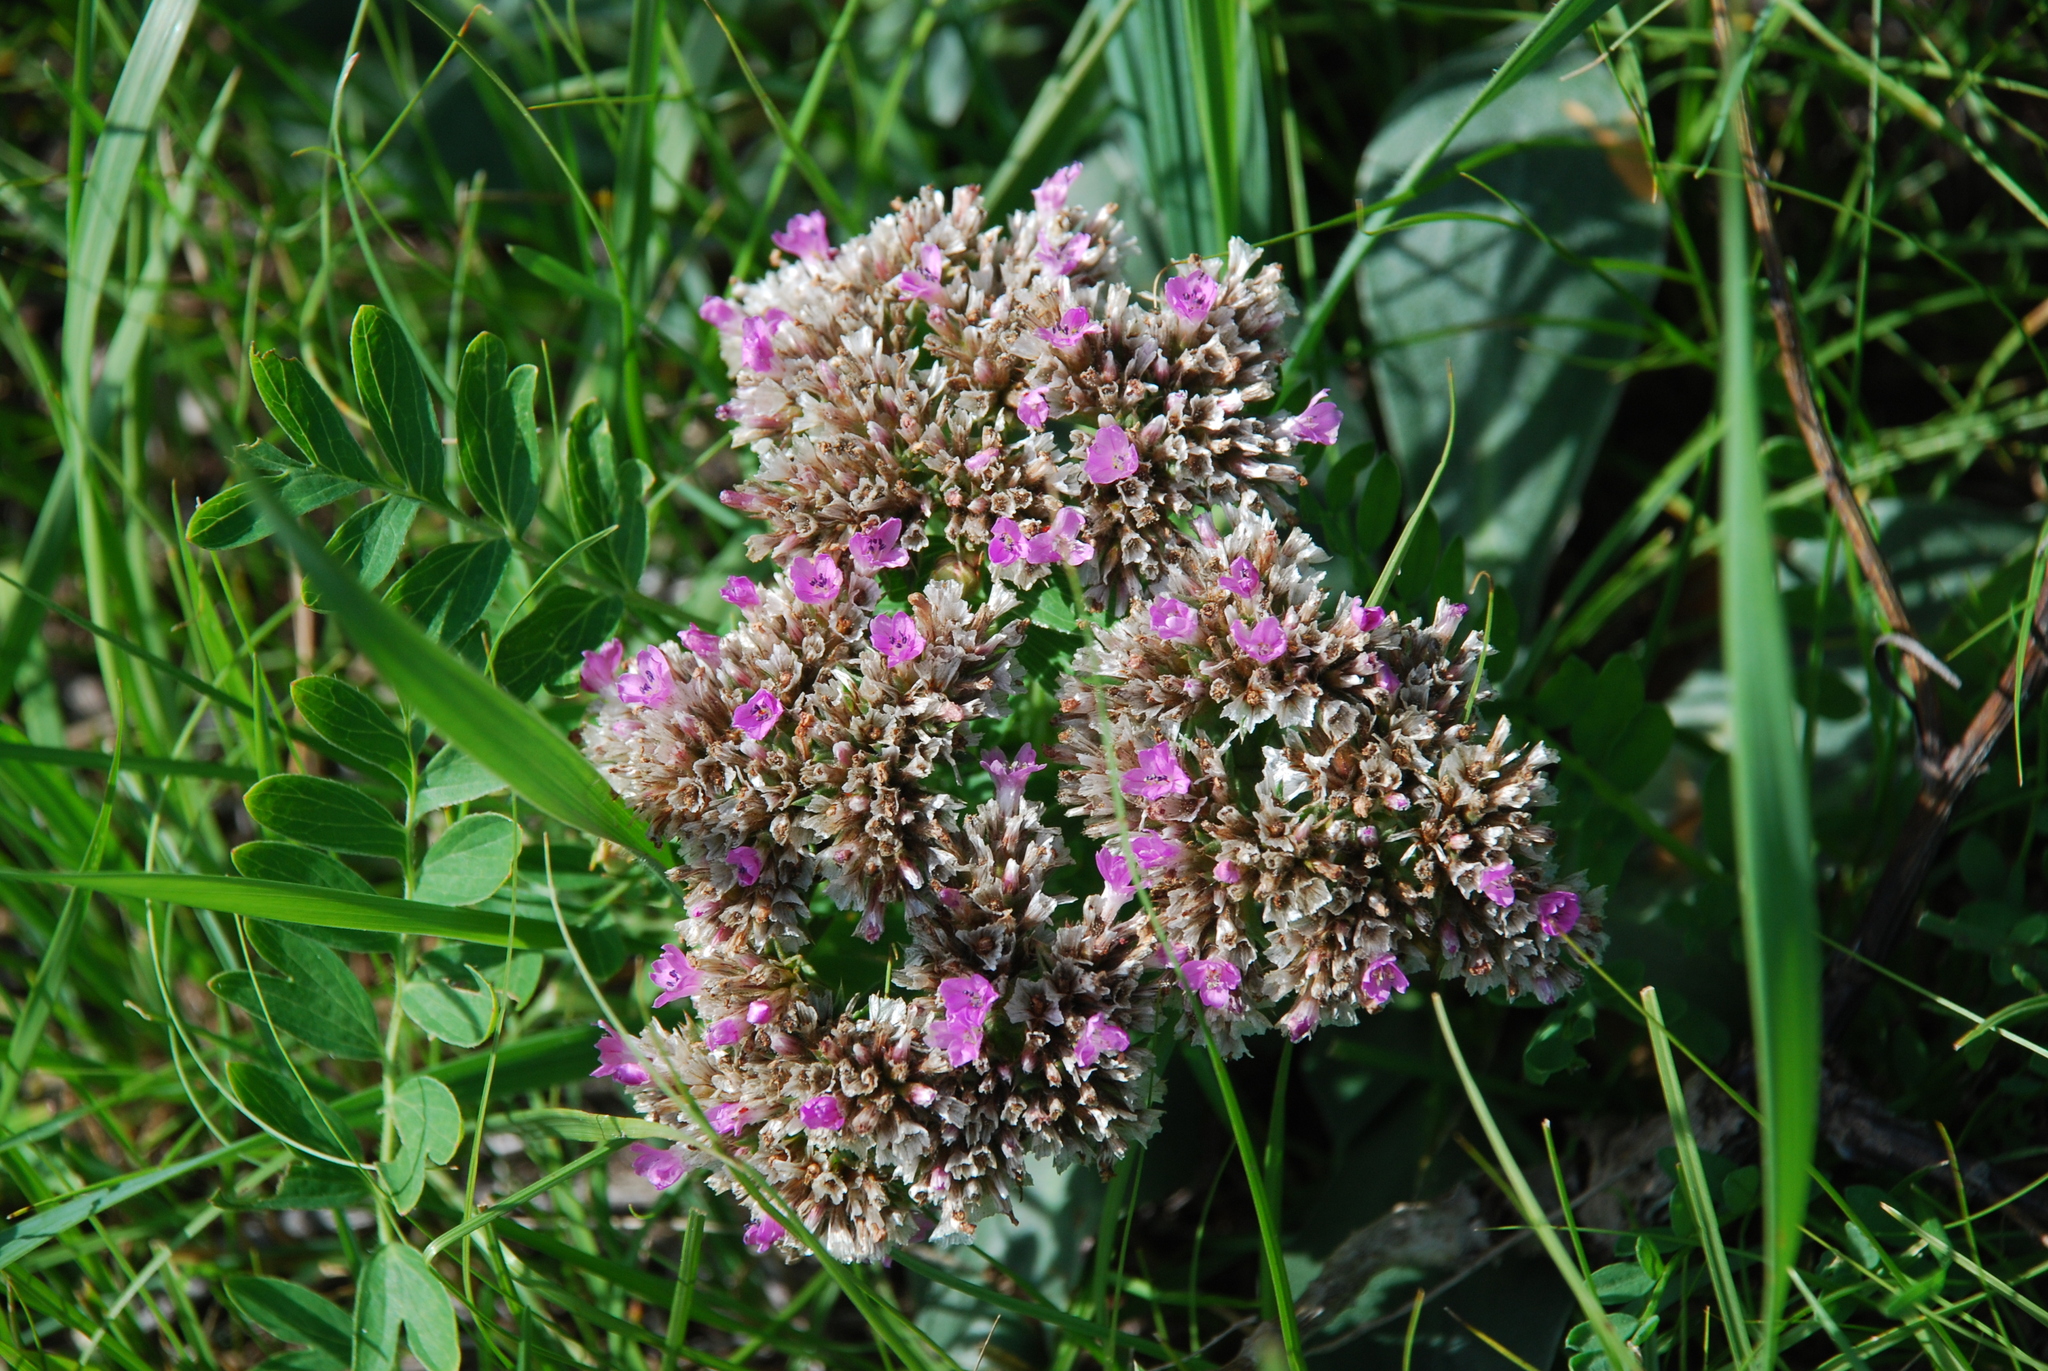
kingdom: Plantae
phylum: Tracheophyta
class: Magnoliopsida
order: Caryophyllales
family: Plumbaginaceae
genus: Goniolimon
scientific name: Goniolimon speciosum
